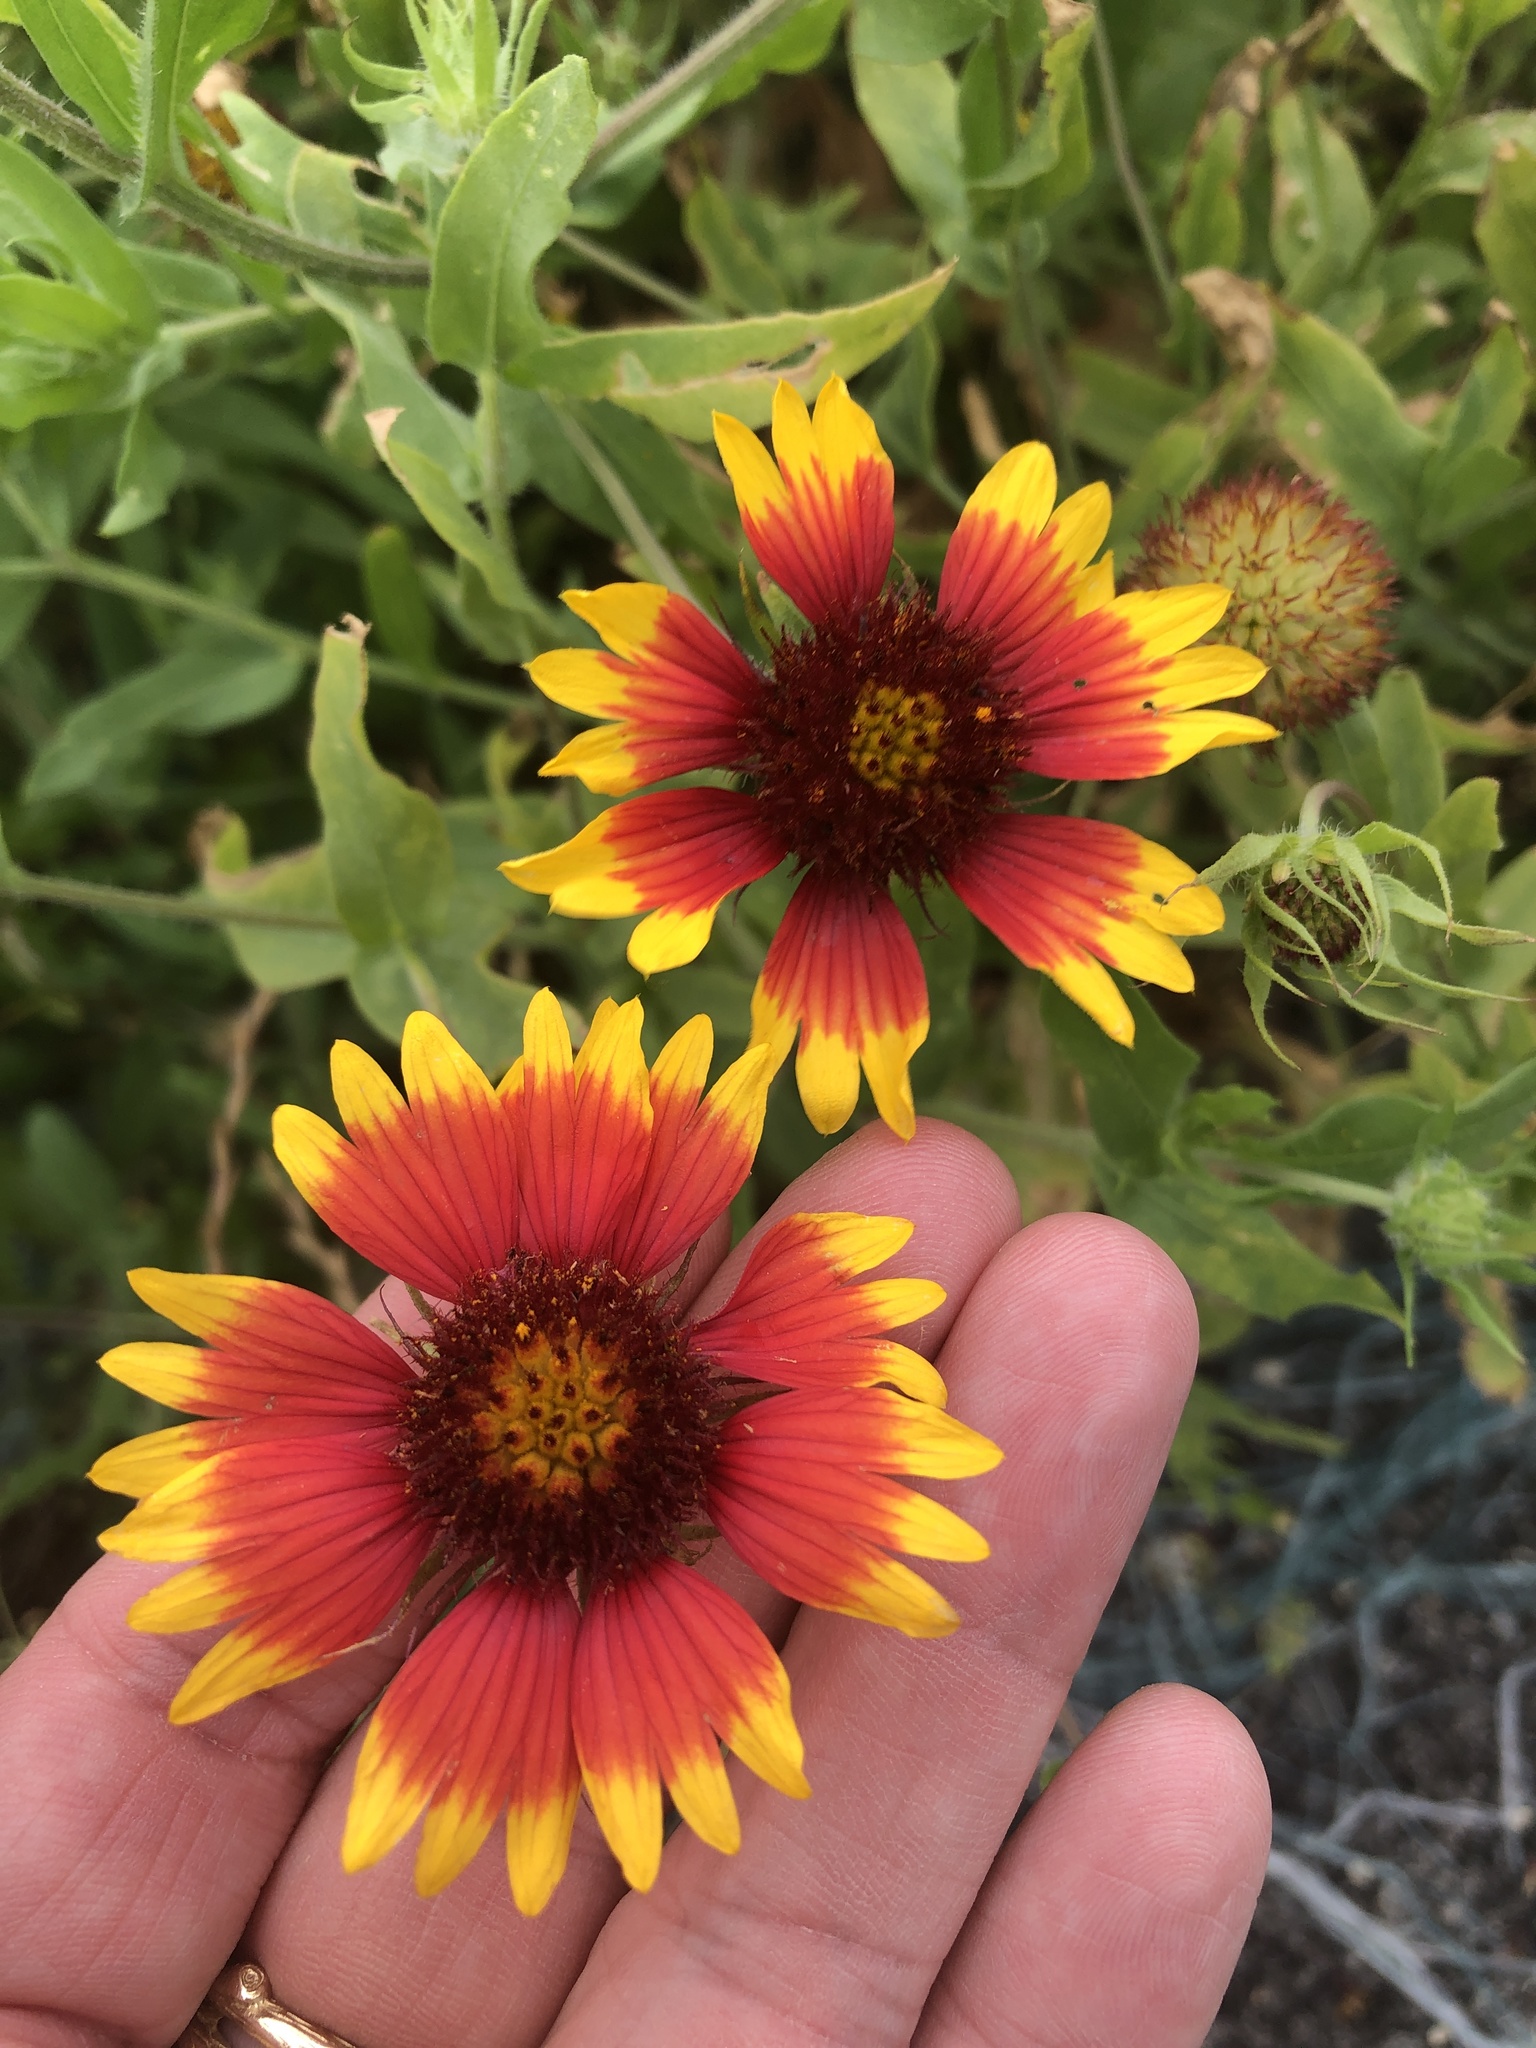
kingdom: Plantae
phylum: Tracheophyta
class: Magnoliopsida
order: Asterales
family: Asteraceae
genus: Gaillardia
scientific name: Gaillardia pulchella
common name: Firewheel
